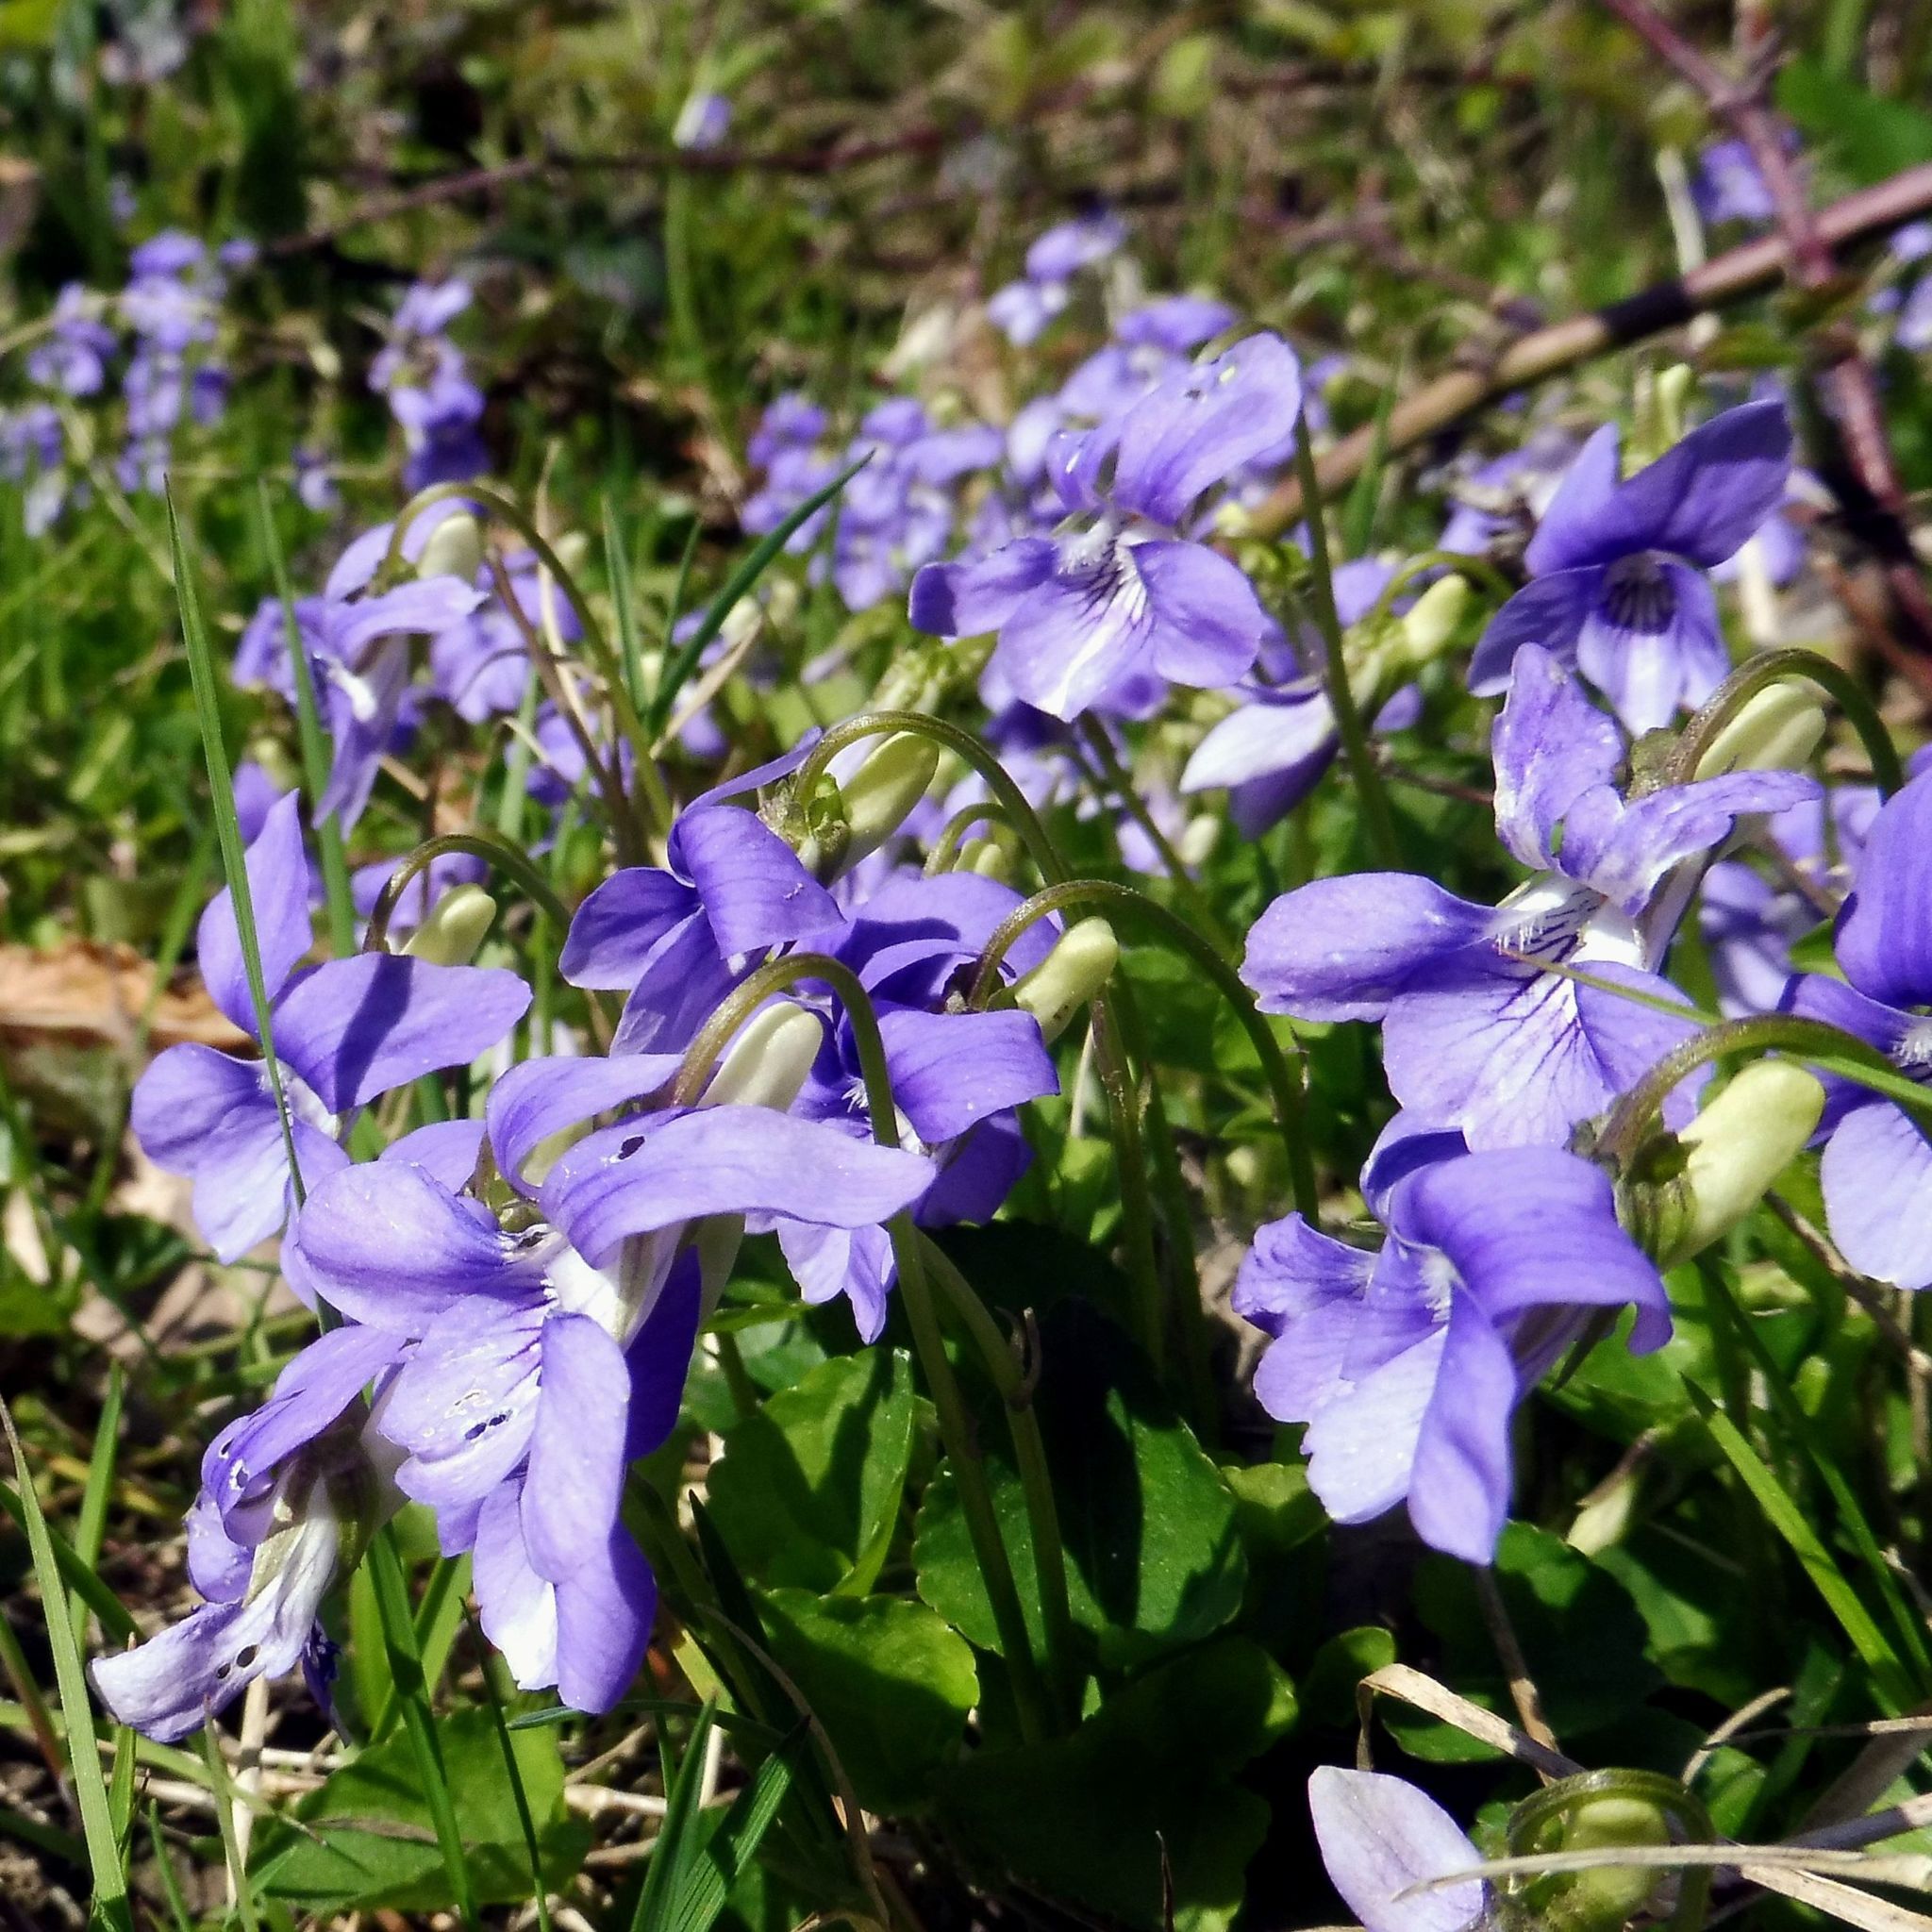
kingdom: Plantae
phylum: Tracheophyta
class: Magnoliopsida
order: Malpighiales
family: Violaceae
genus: Viola
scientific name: Viola riviniana
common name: Common dog-violet
